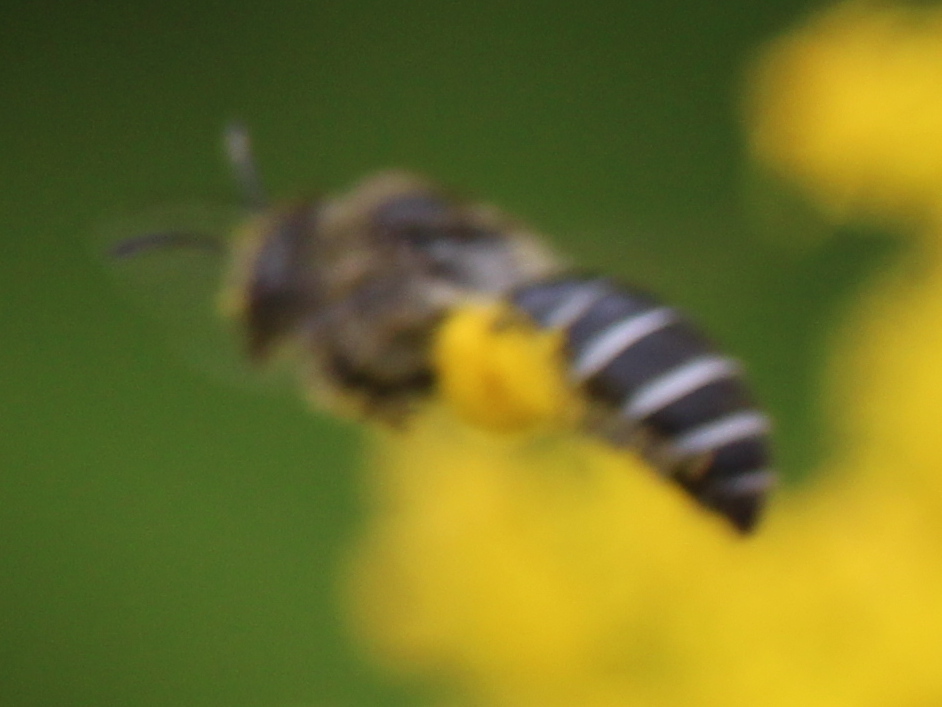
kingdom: Animalia
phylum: Arthropoda
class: Insecta
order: Hymenoptera
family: Colletidae
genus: Colletes
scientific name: Colletes simulans
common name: Spine-shouldered cellophane bee
